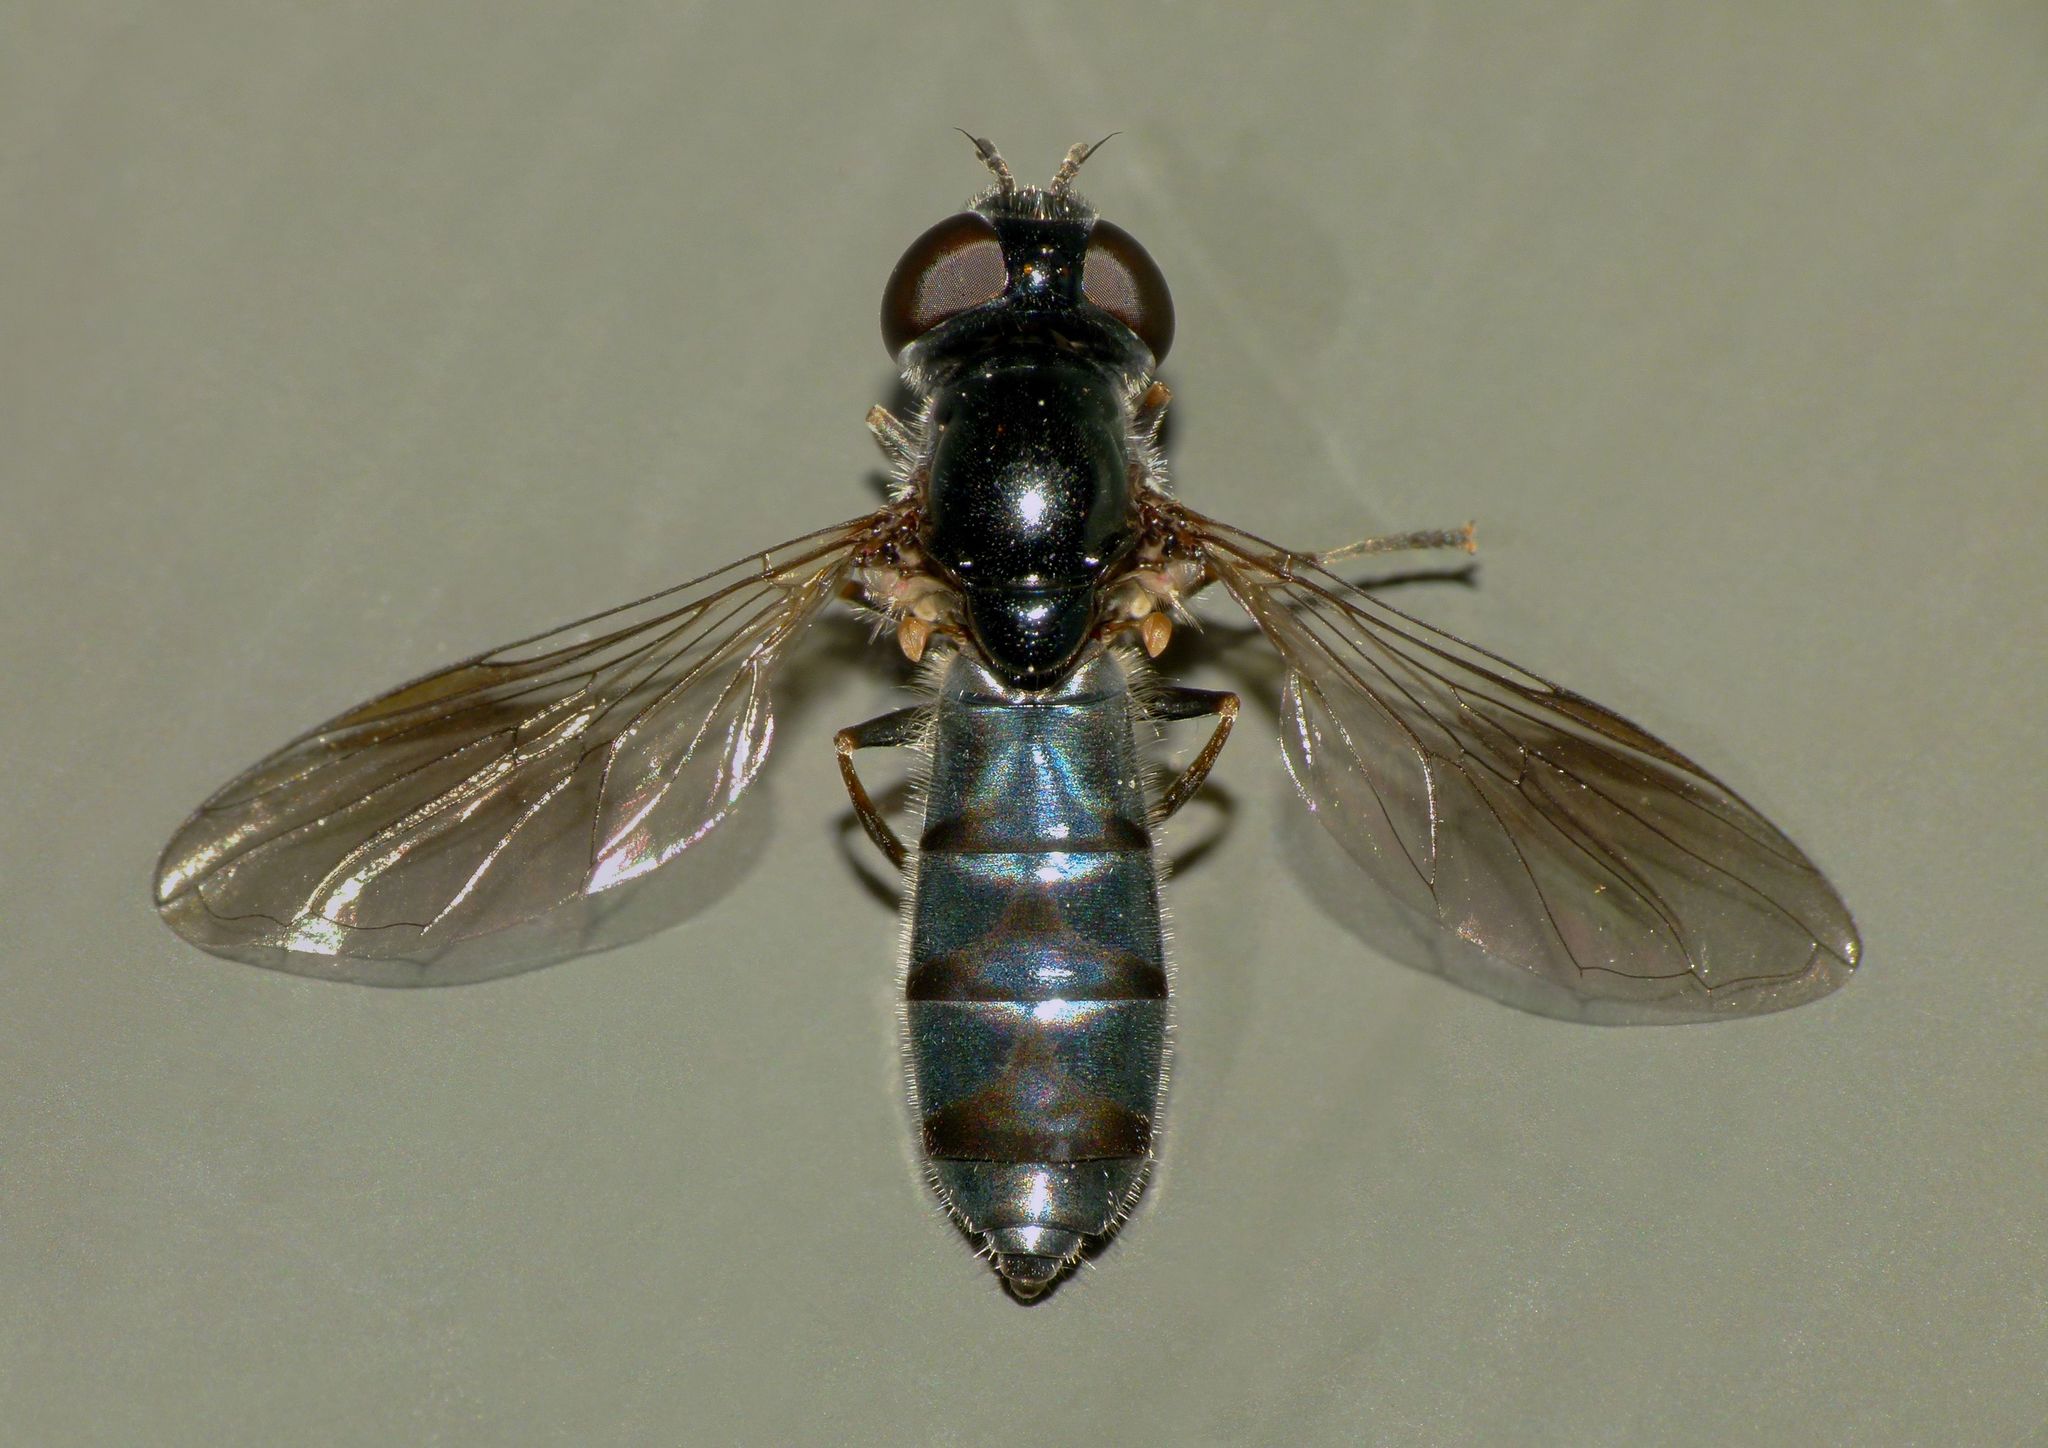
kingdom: Animalia
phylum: Arthropoda
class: Insecta
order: Diptera
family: Syrphidae
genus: Eocheilosia
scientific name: Eocheilosia lignudus
